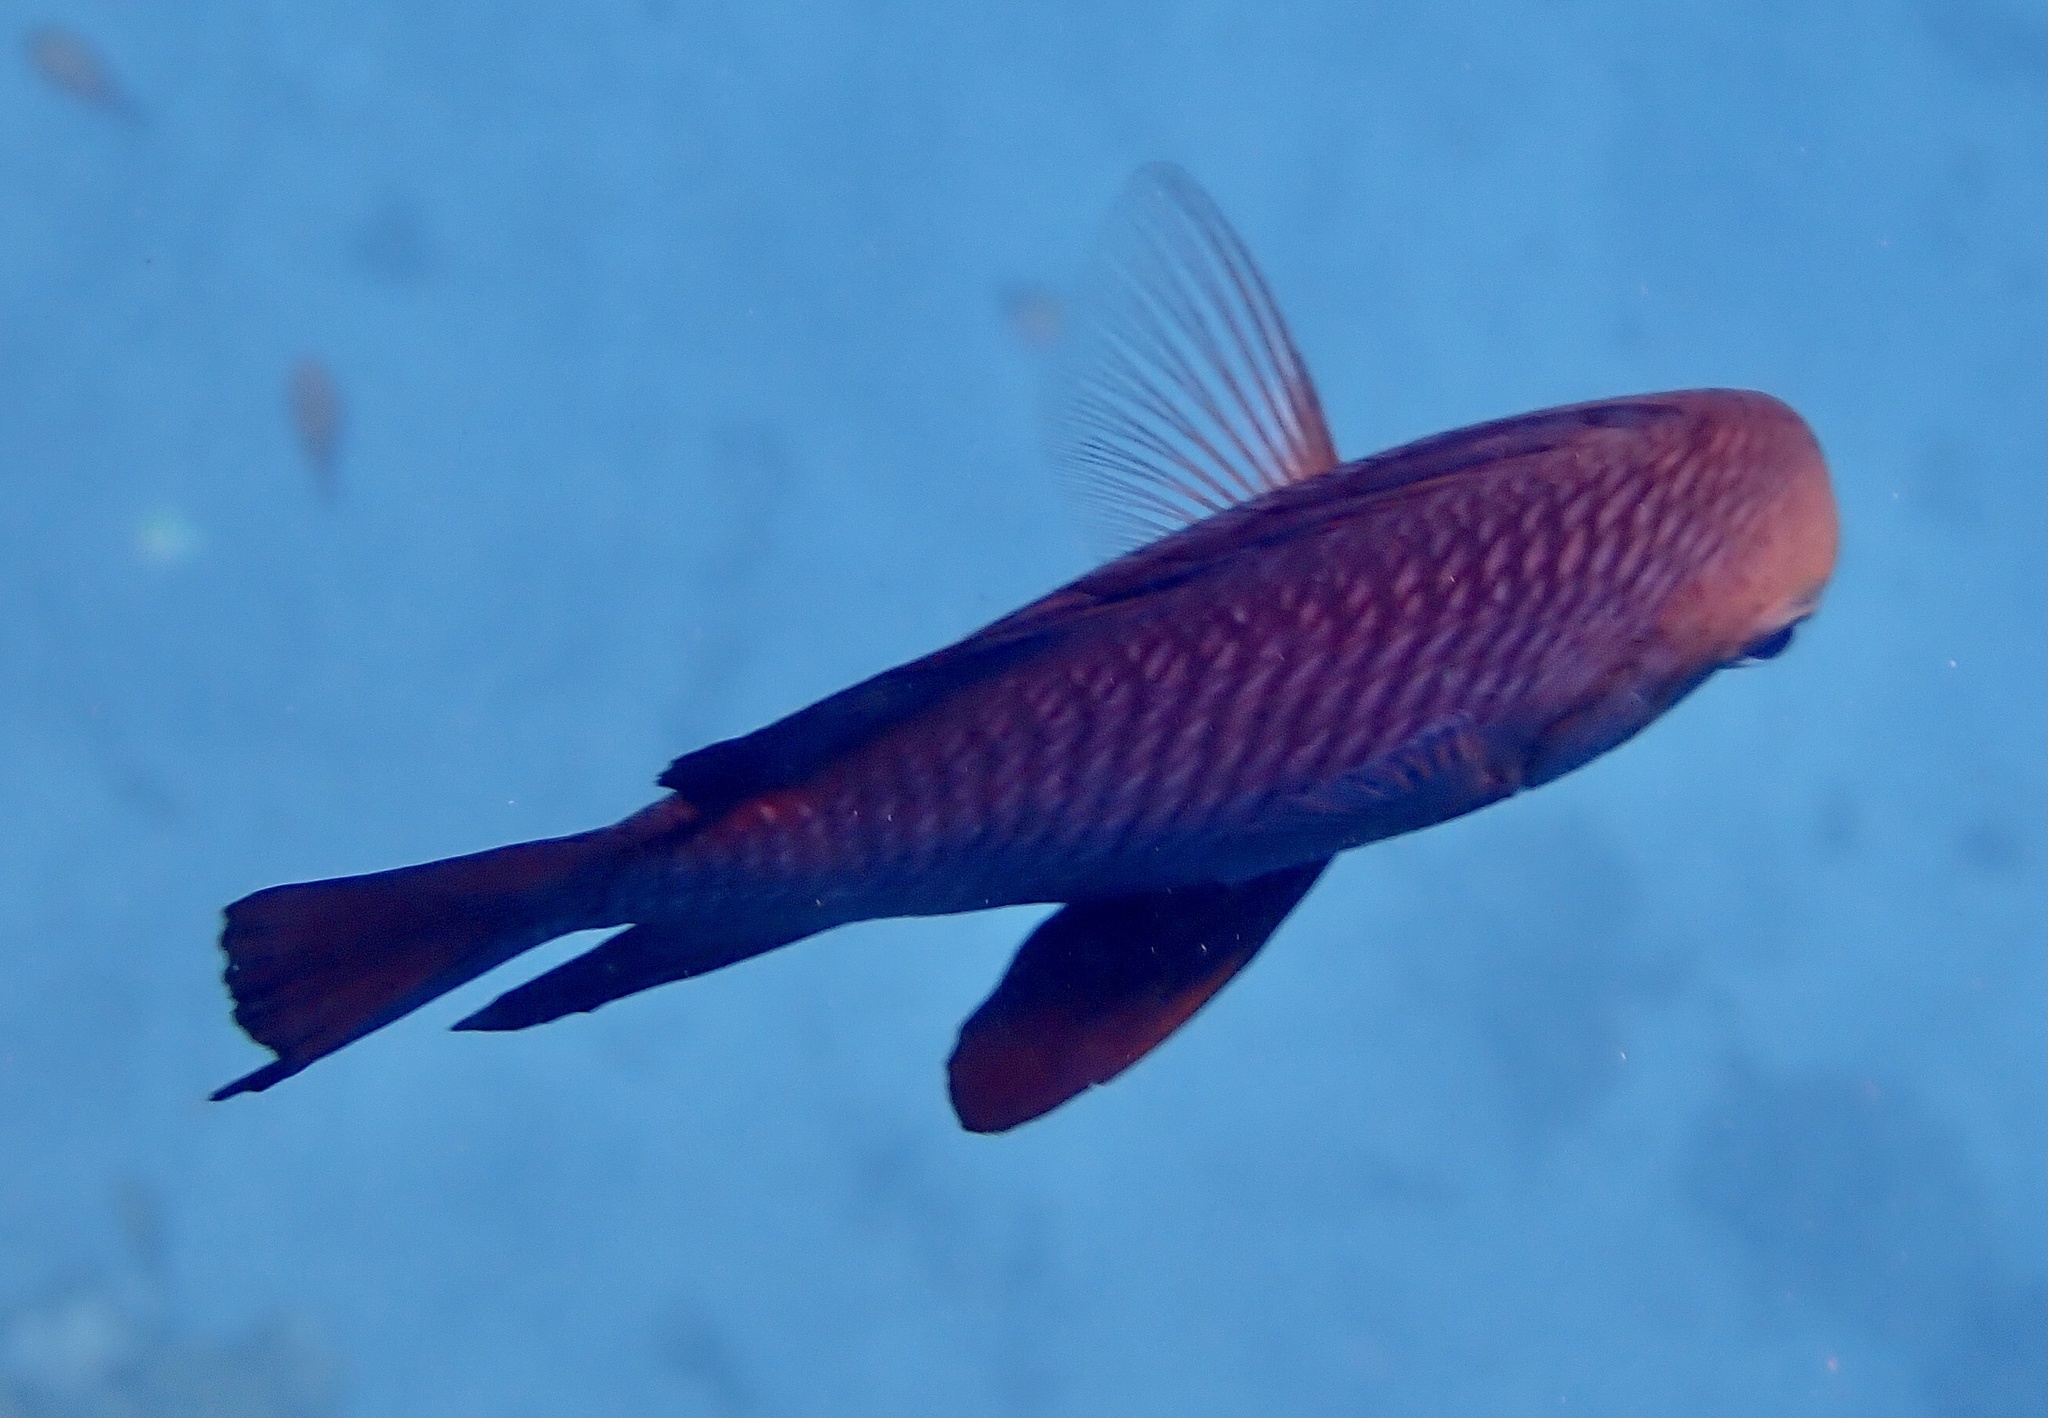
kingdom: Animalia
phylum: Chordata
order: Perciformes
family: Pomacentridae
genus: Dascyllus
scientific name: Dascyllus trimaculatus
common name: Threespot dascyllus
